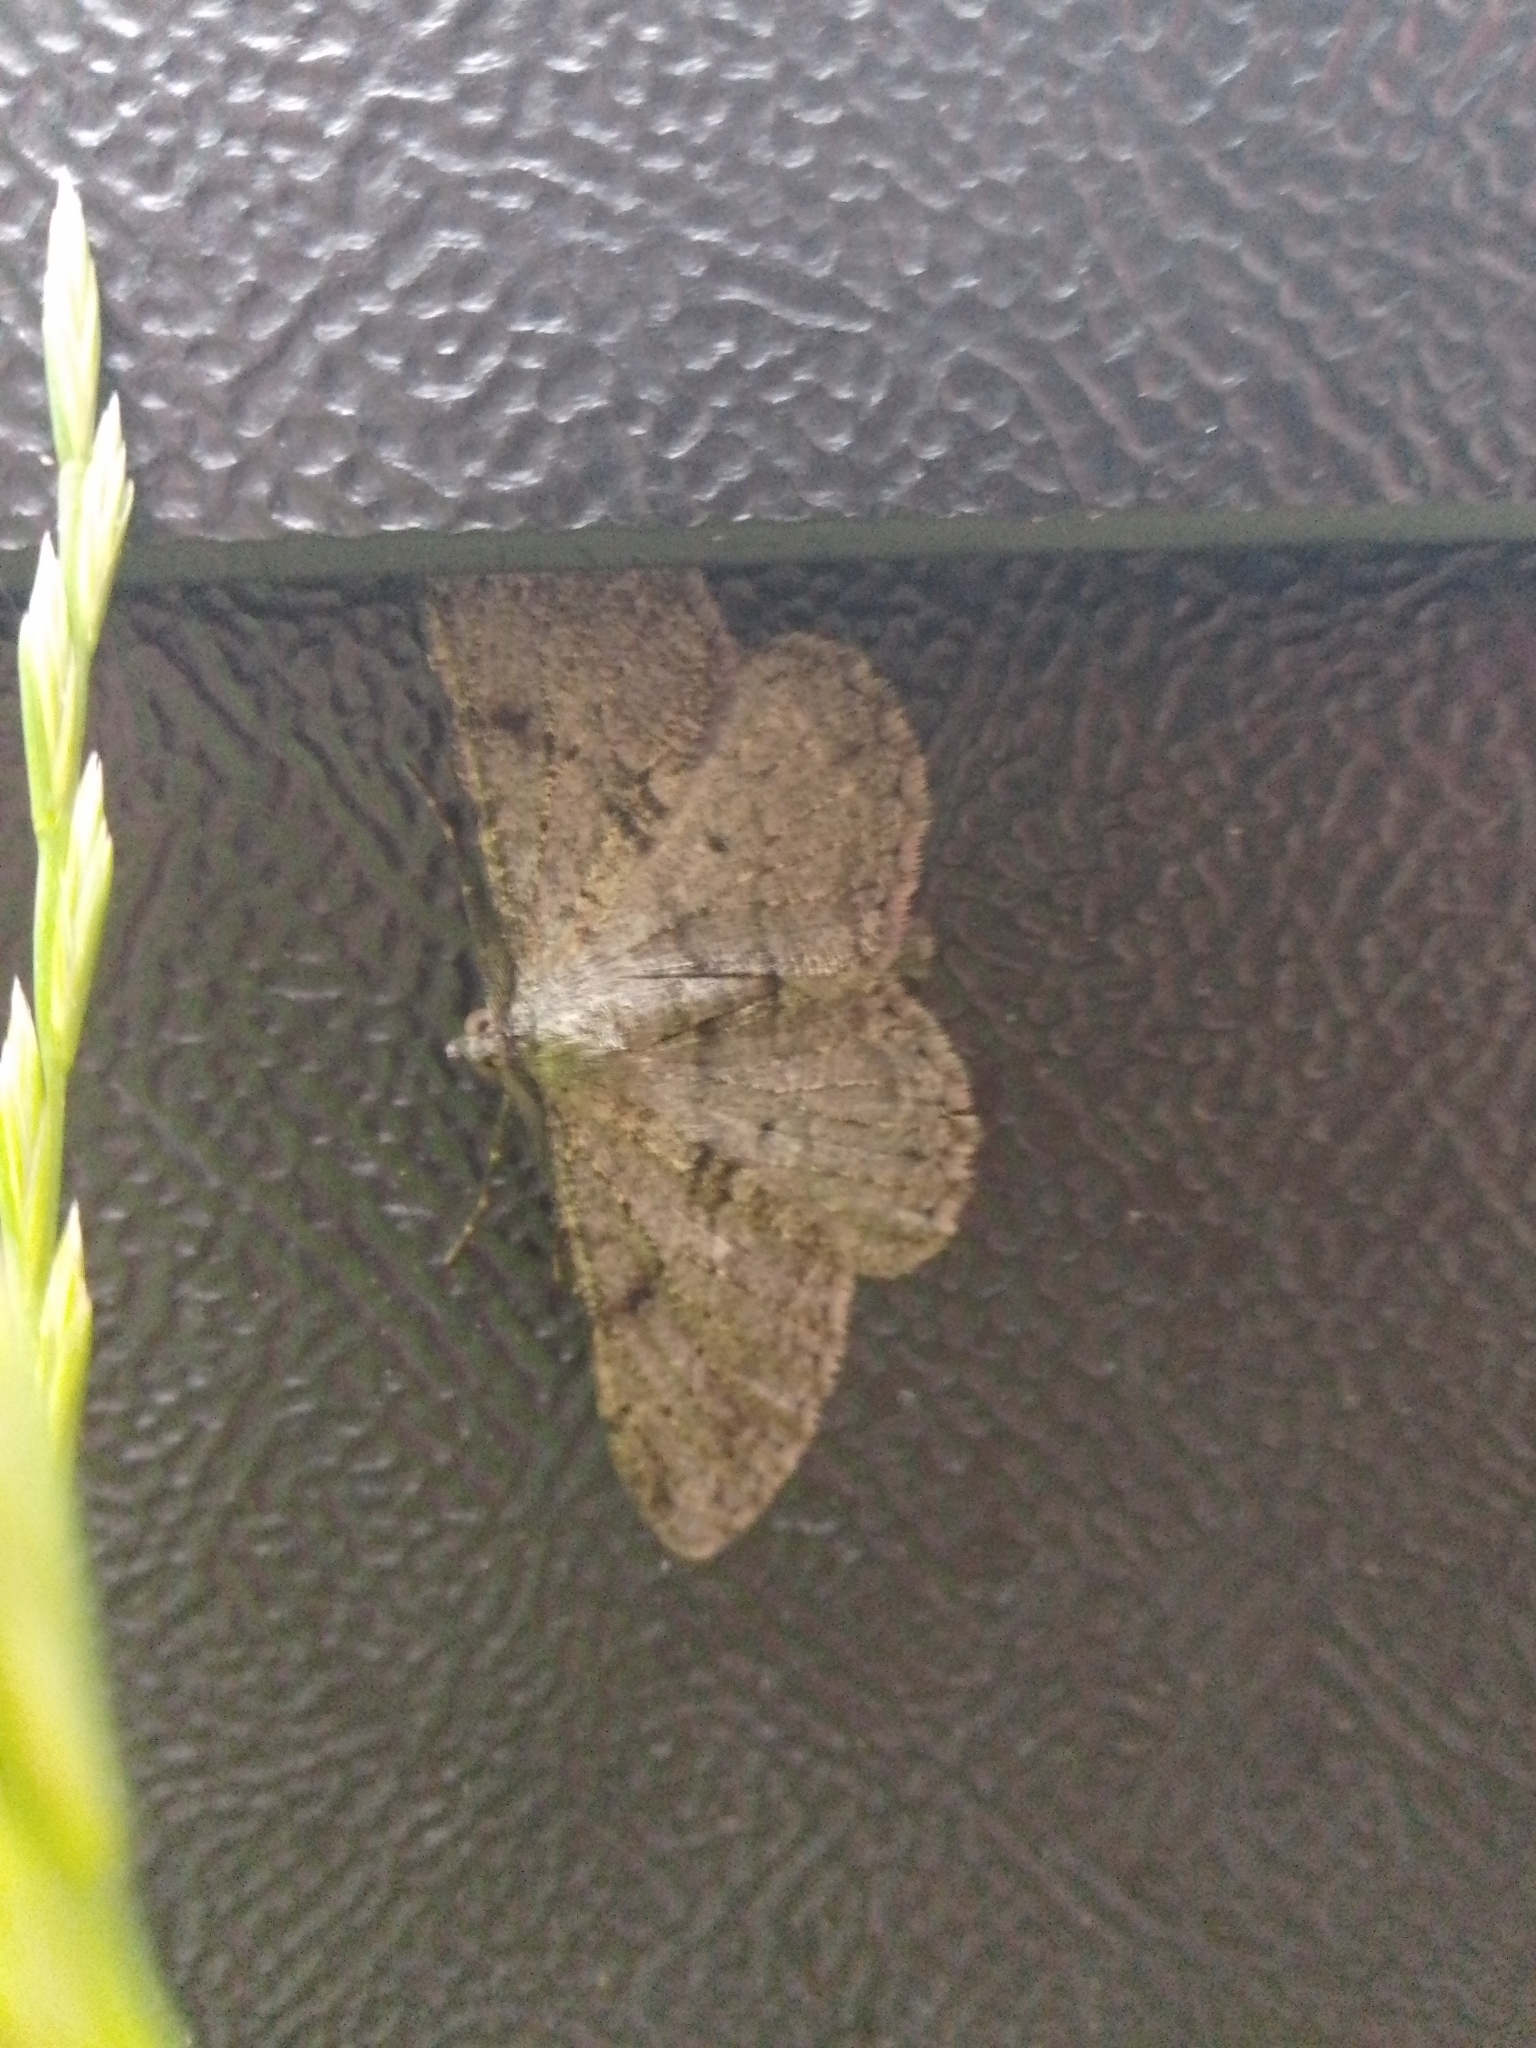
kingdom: Animalia
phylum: Arthropoda
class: Insecta
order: Lepidoptera
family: Geometridae
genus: Peribatodes
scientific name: Peribatodes rhomboidaria
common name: Willow beauty
